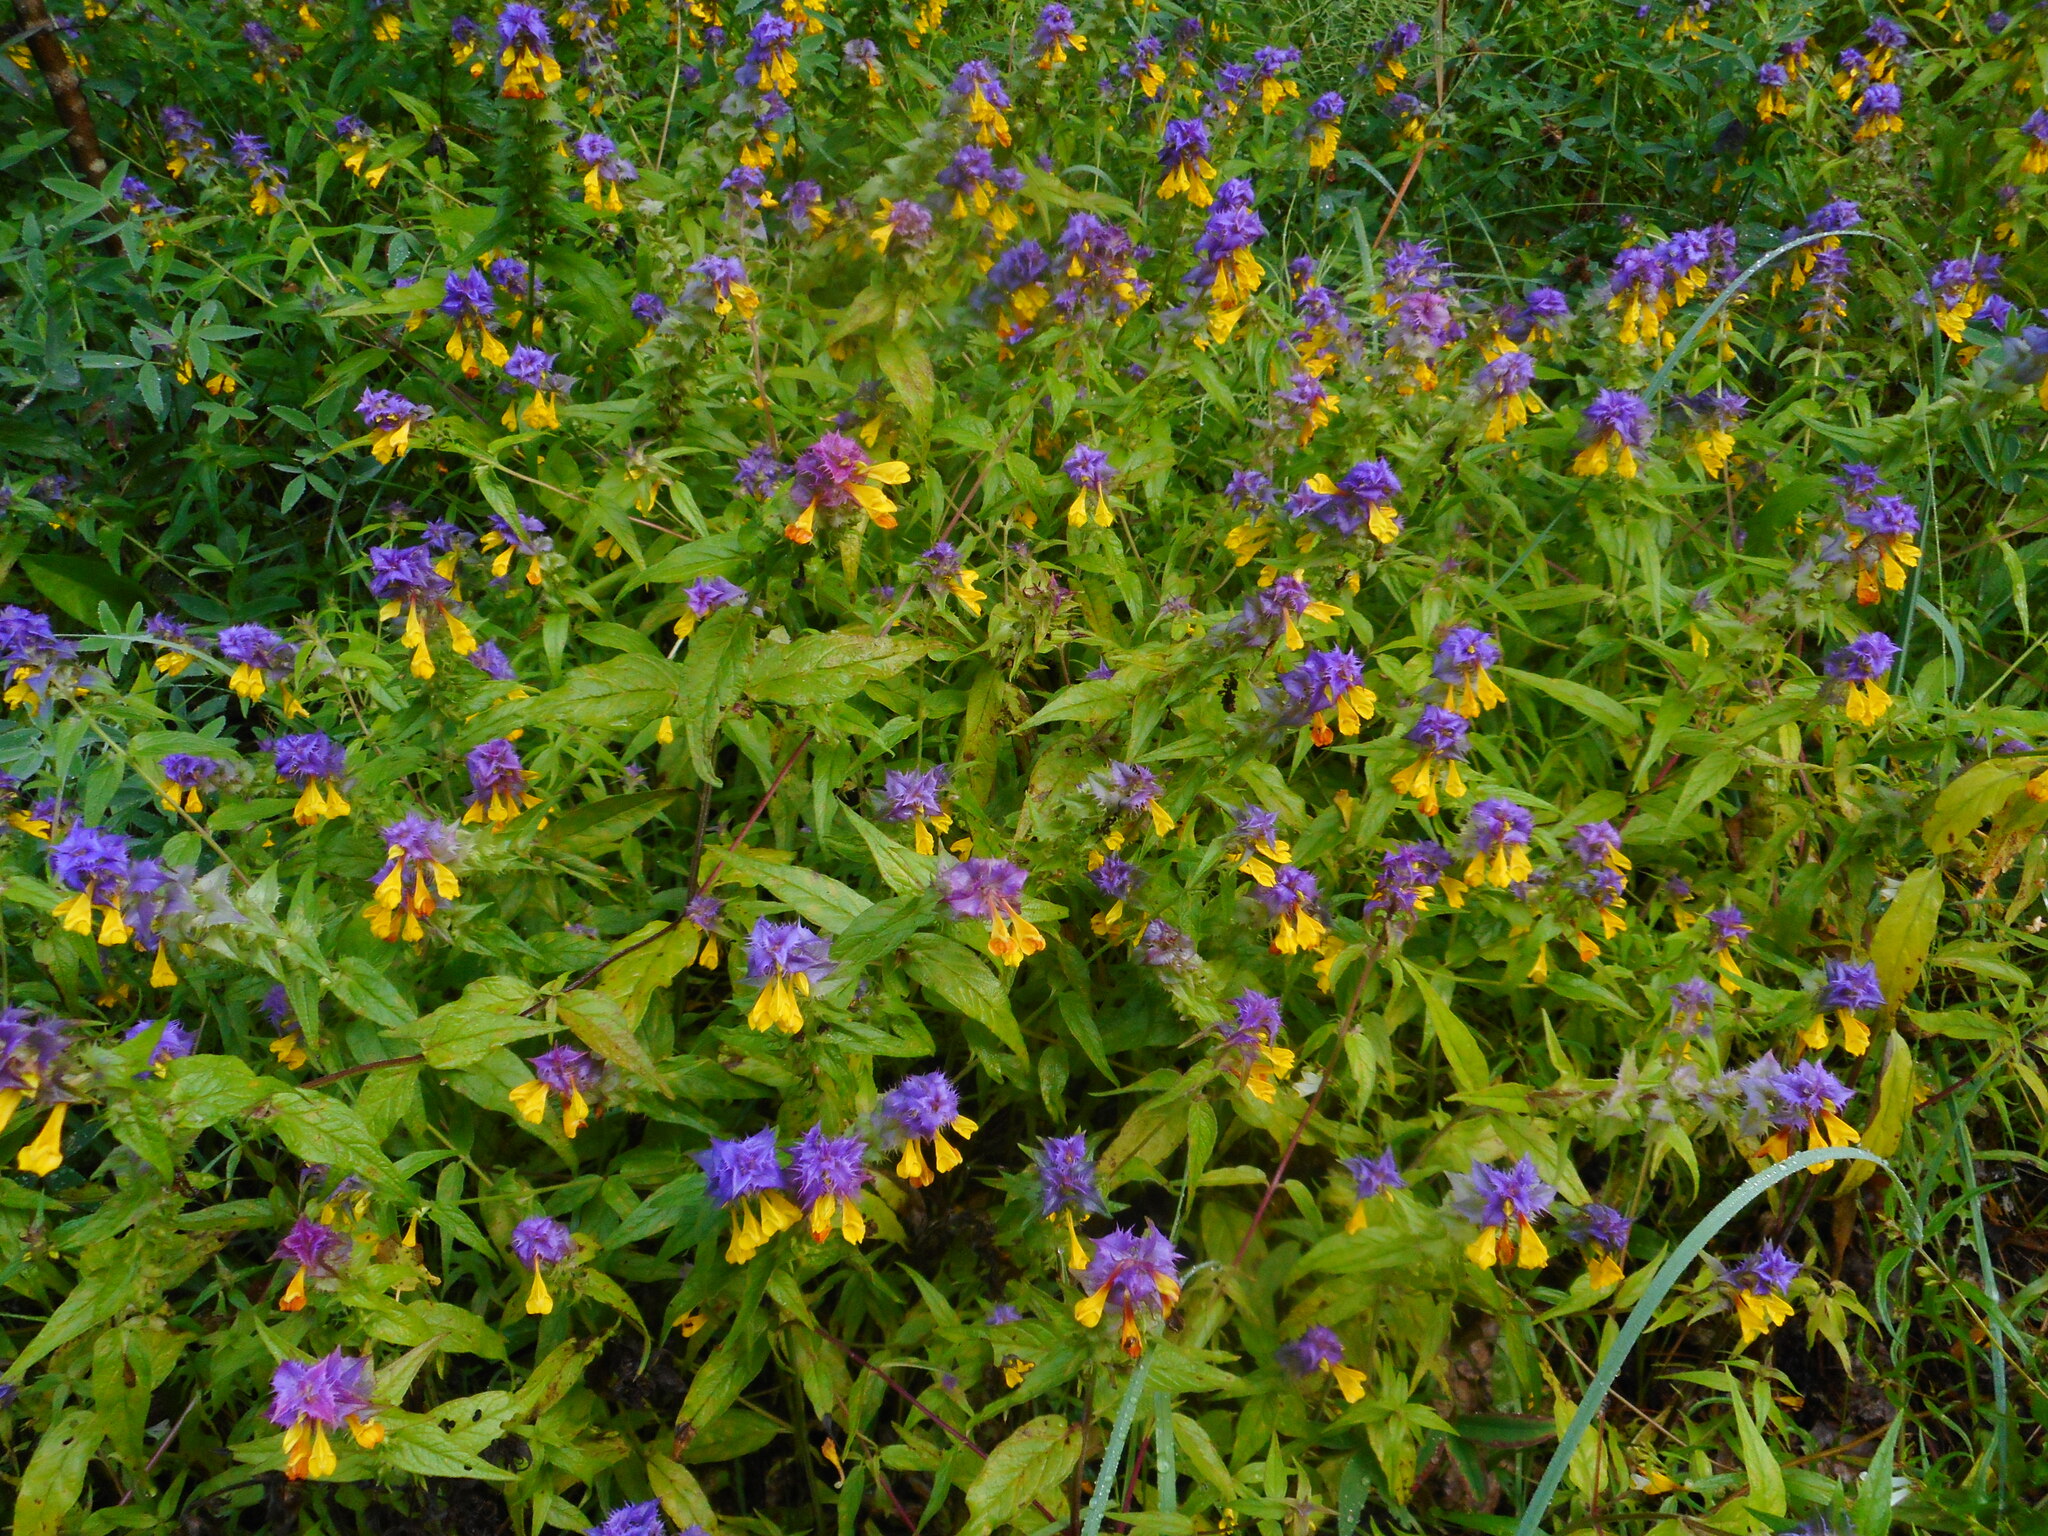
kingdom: Plantae
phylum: Tracheophyta
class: Magnoliopsida
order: Lamiales
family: Orobanchaceae
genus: Melampyrum
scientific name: Melampyrum nemorosum
